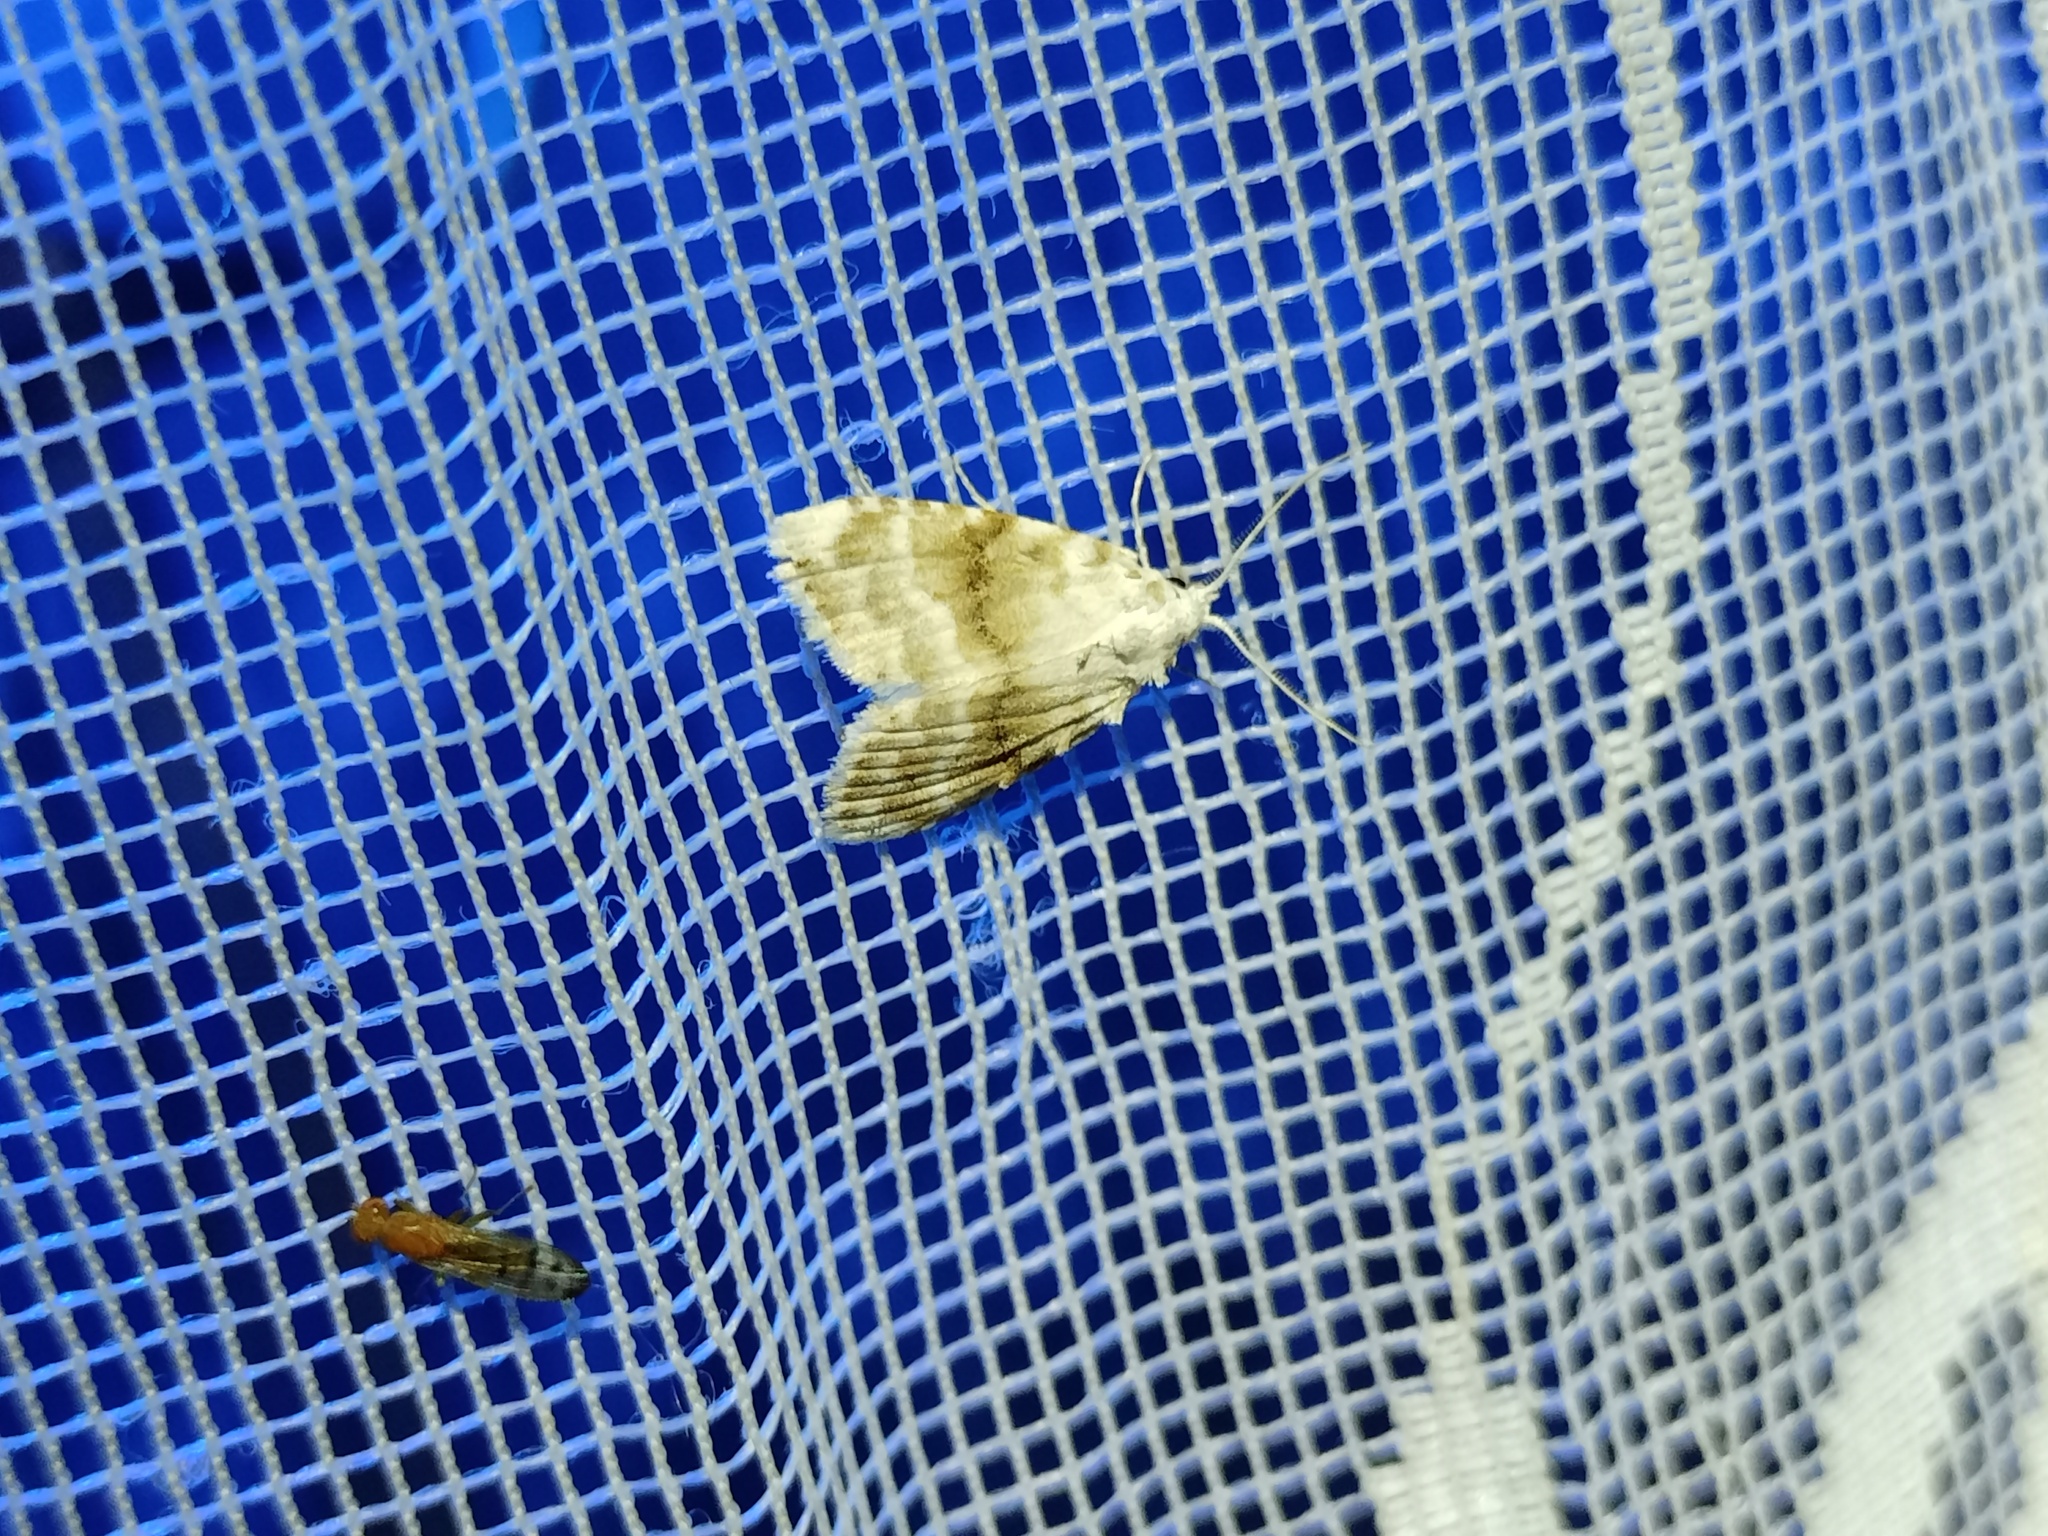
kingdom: Animalia
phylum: Arthropoda
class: Insecta
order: Lepidoptera
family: Nolidae
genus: Meganola
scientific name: Meganola albula
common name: Kent black arches
